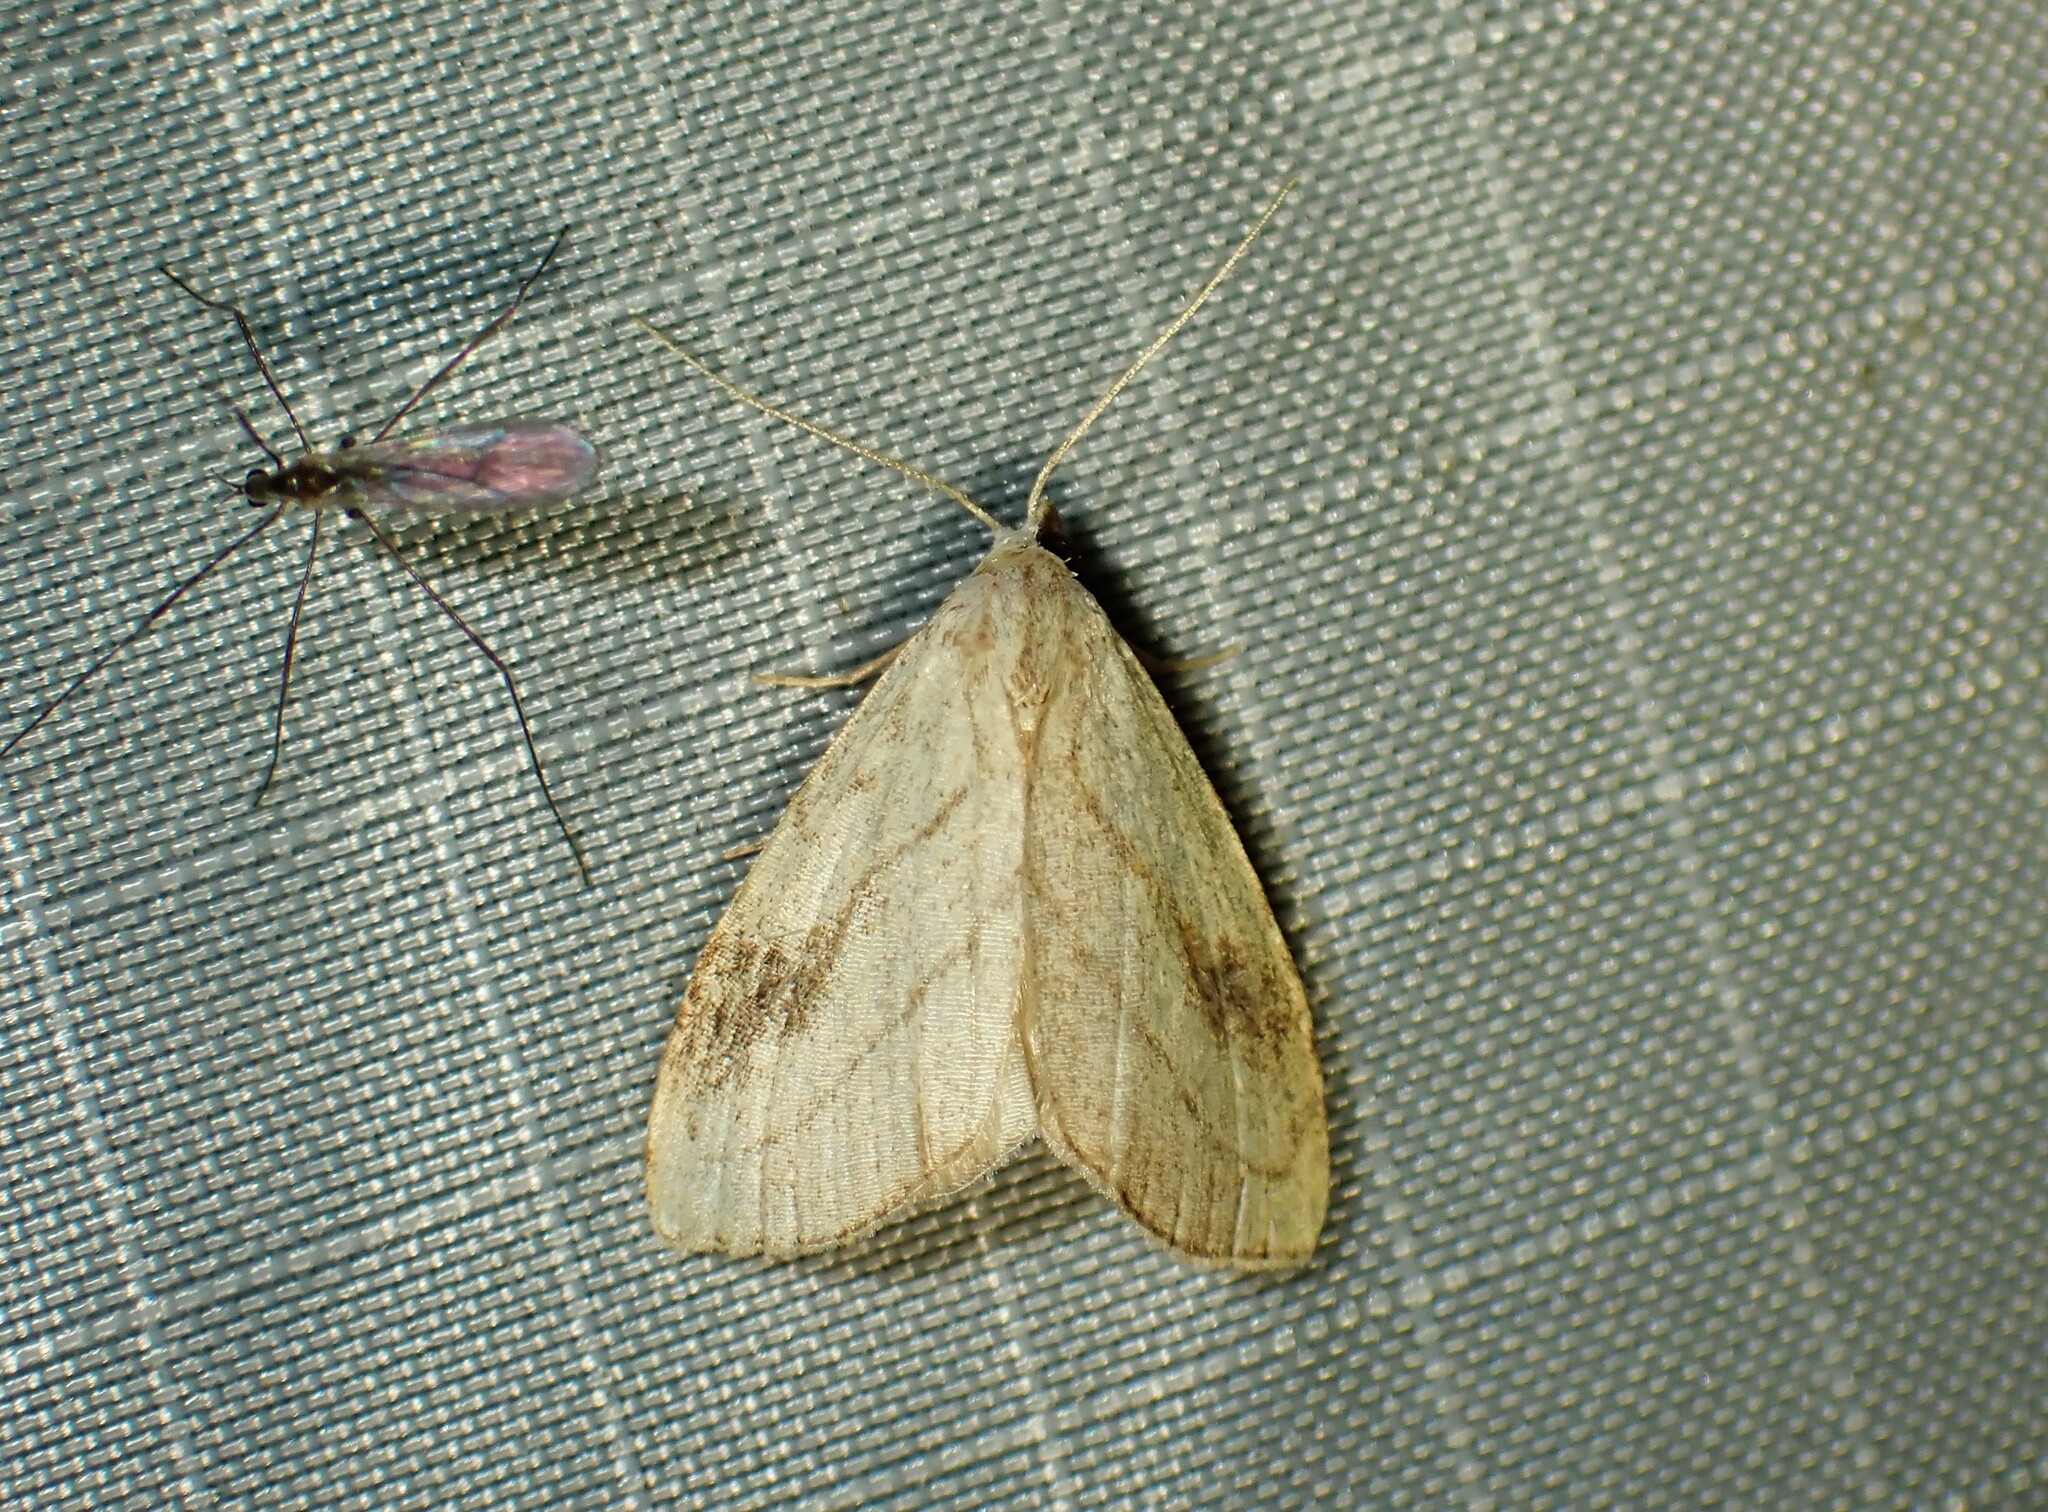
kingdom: Animalia
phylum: Arthropoda
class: Insecta
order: Lepidoptera
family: Erebidae
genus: Rivula
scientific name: Rivula propinqualis
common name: Spotted grass moth
